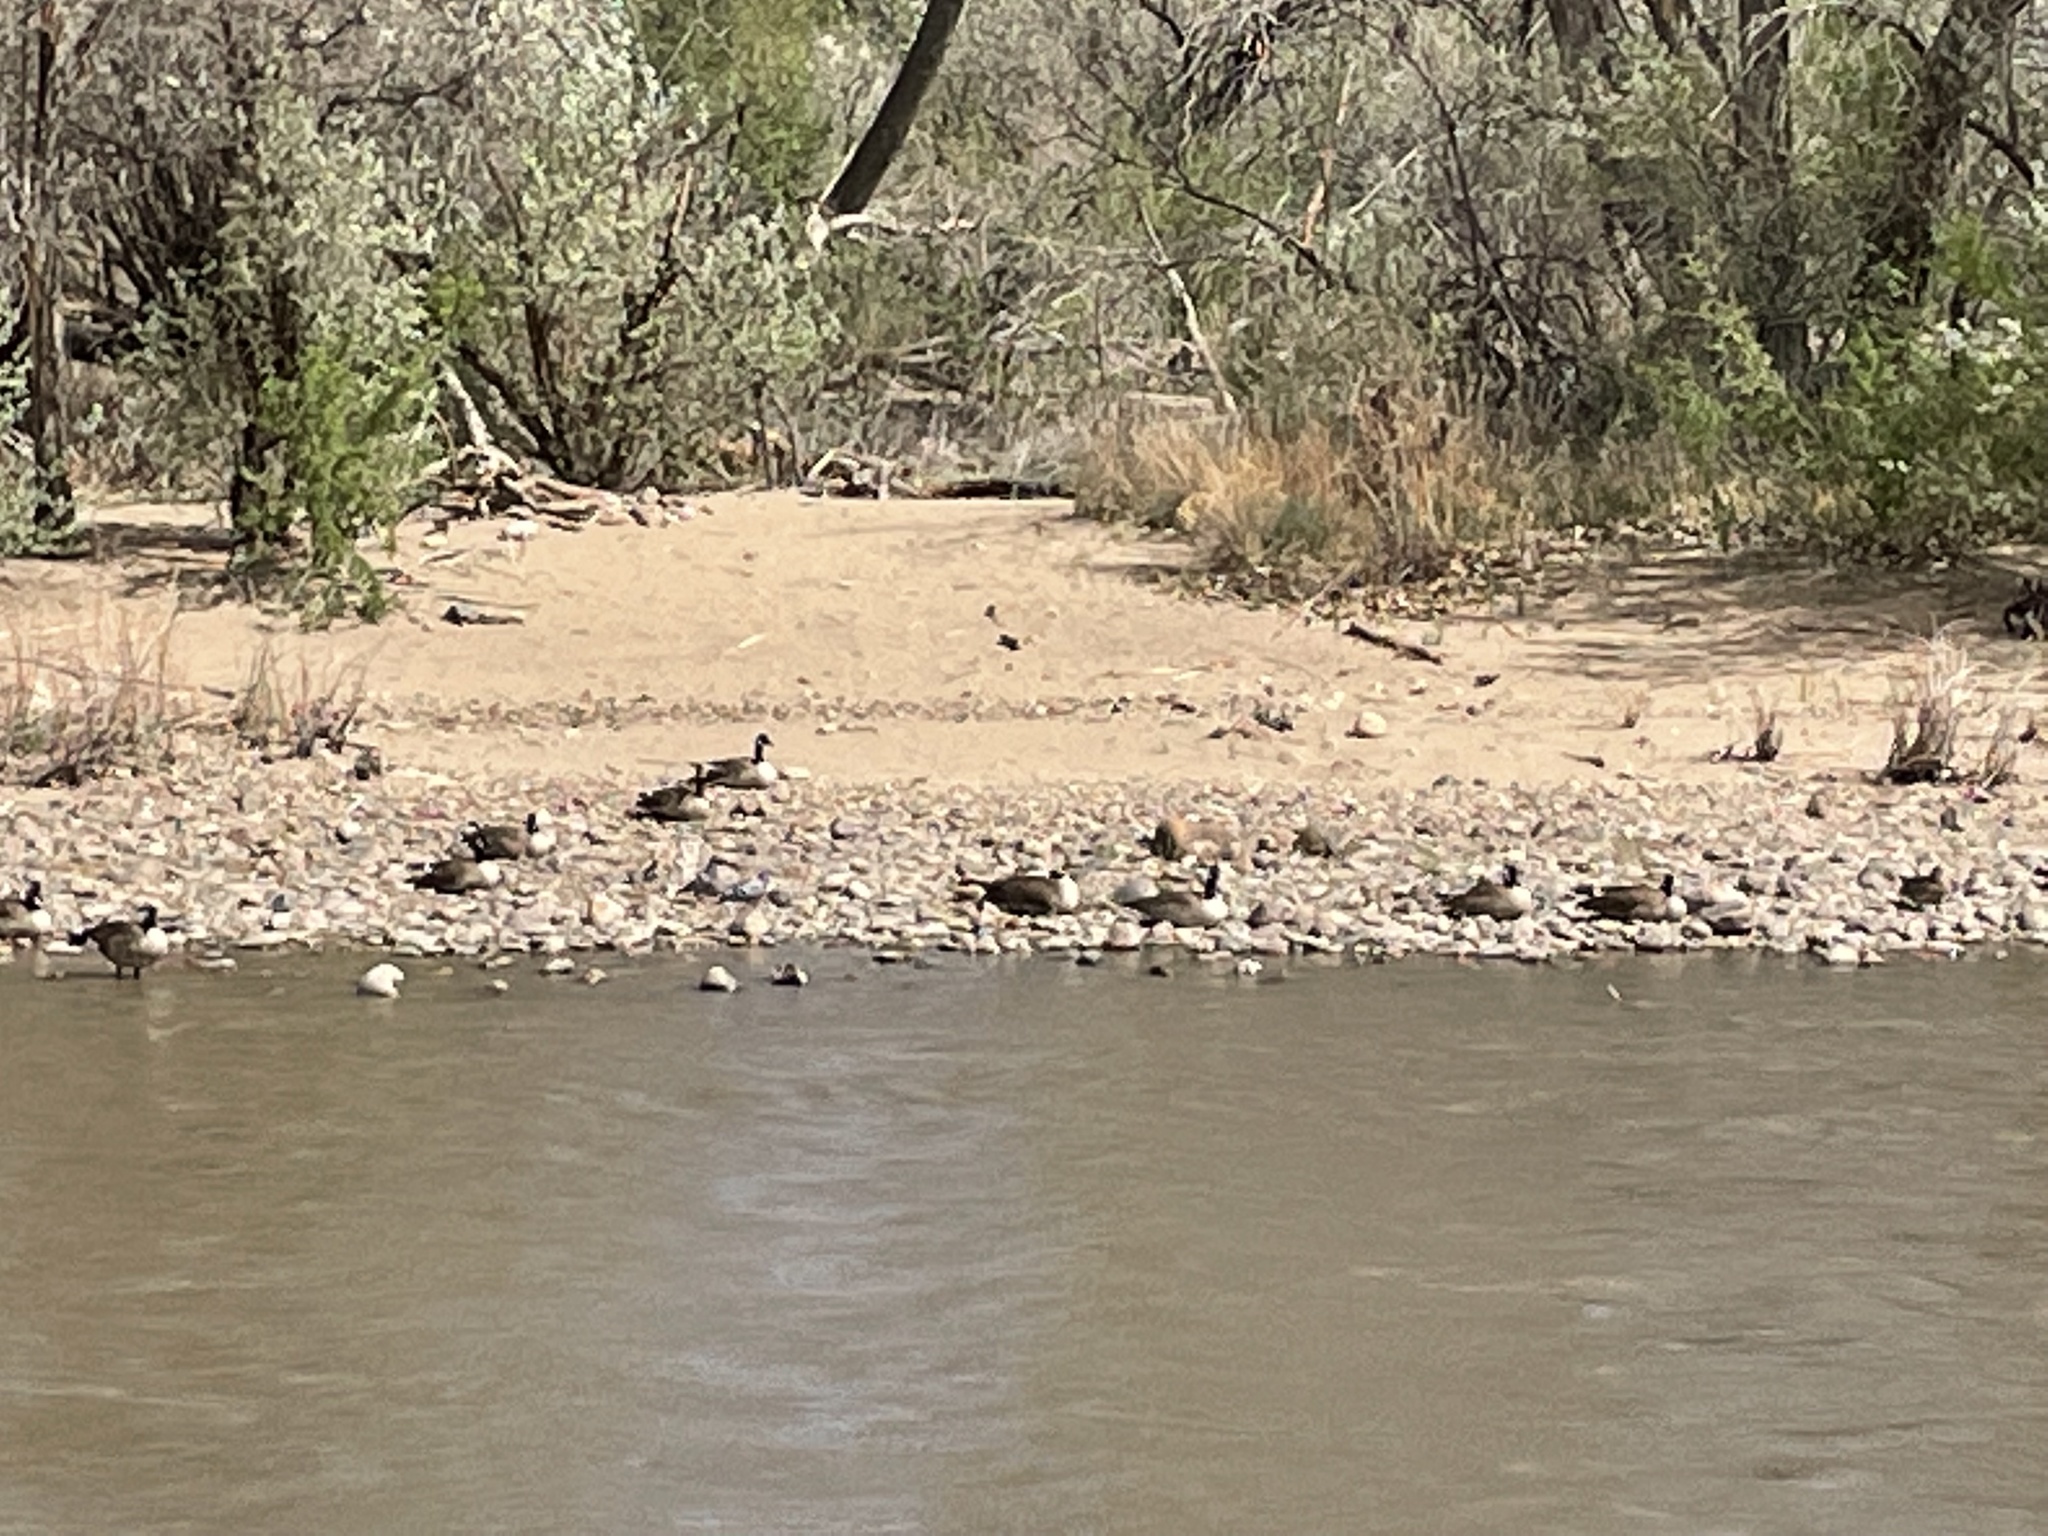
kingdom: Animalia
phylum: Chordata
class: Aves
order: Anseriformes
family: Anatidae
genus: Branta
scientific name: Branta canadensis
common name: Canada goose
